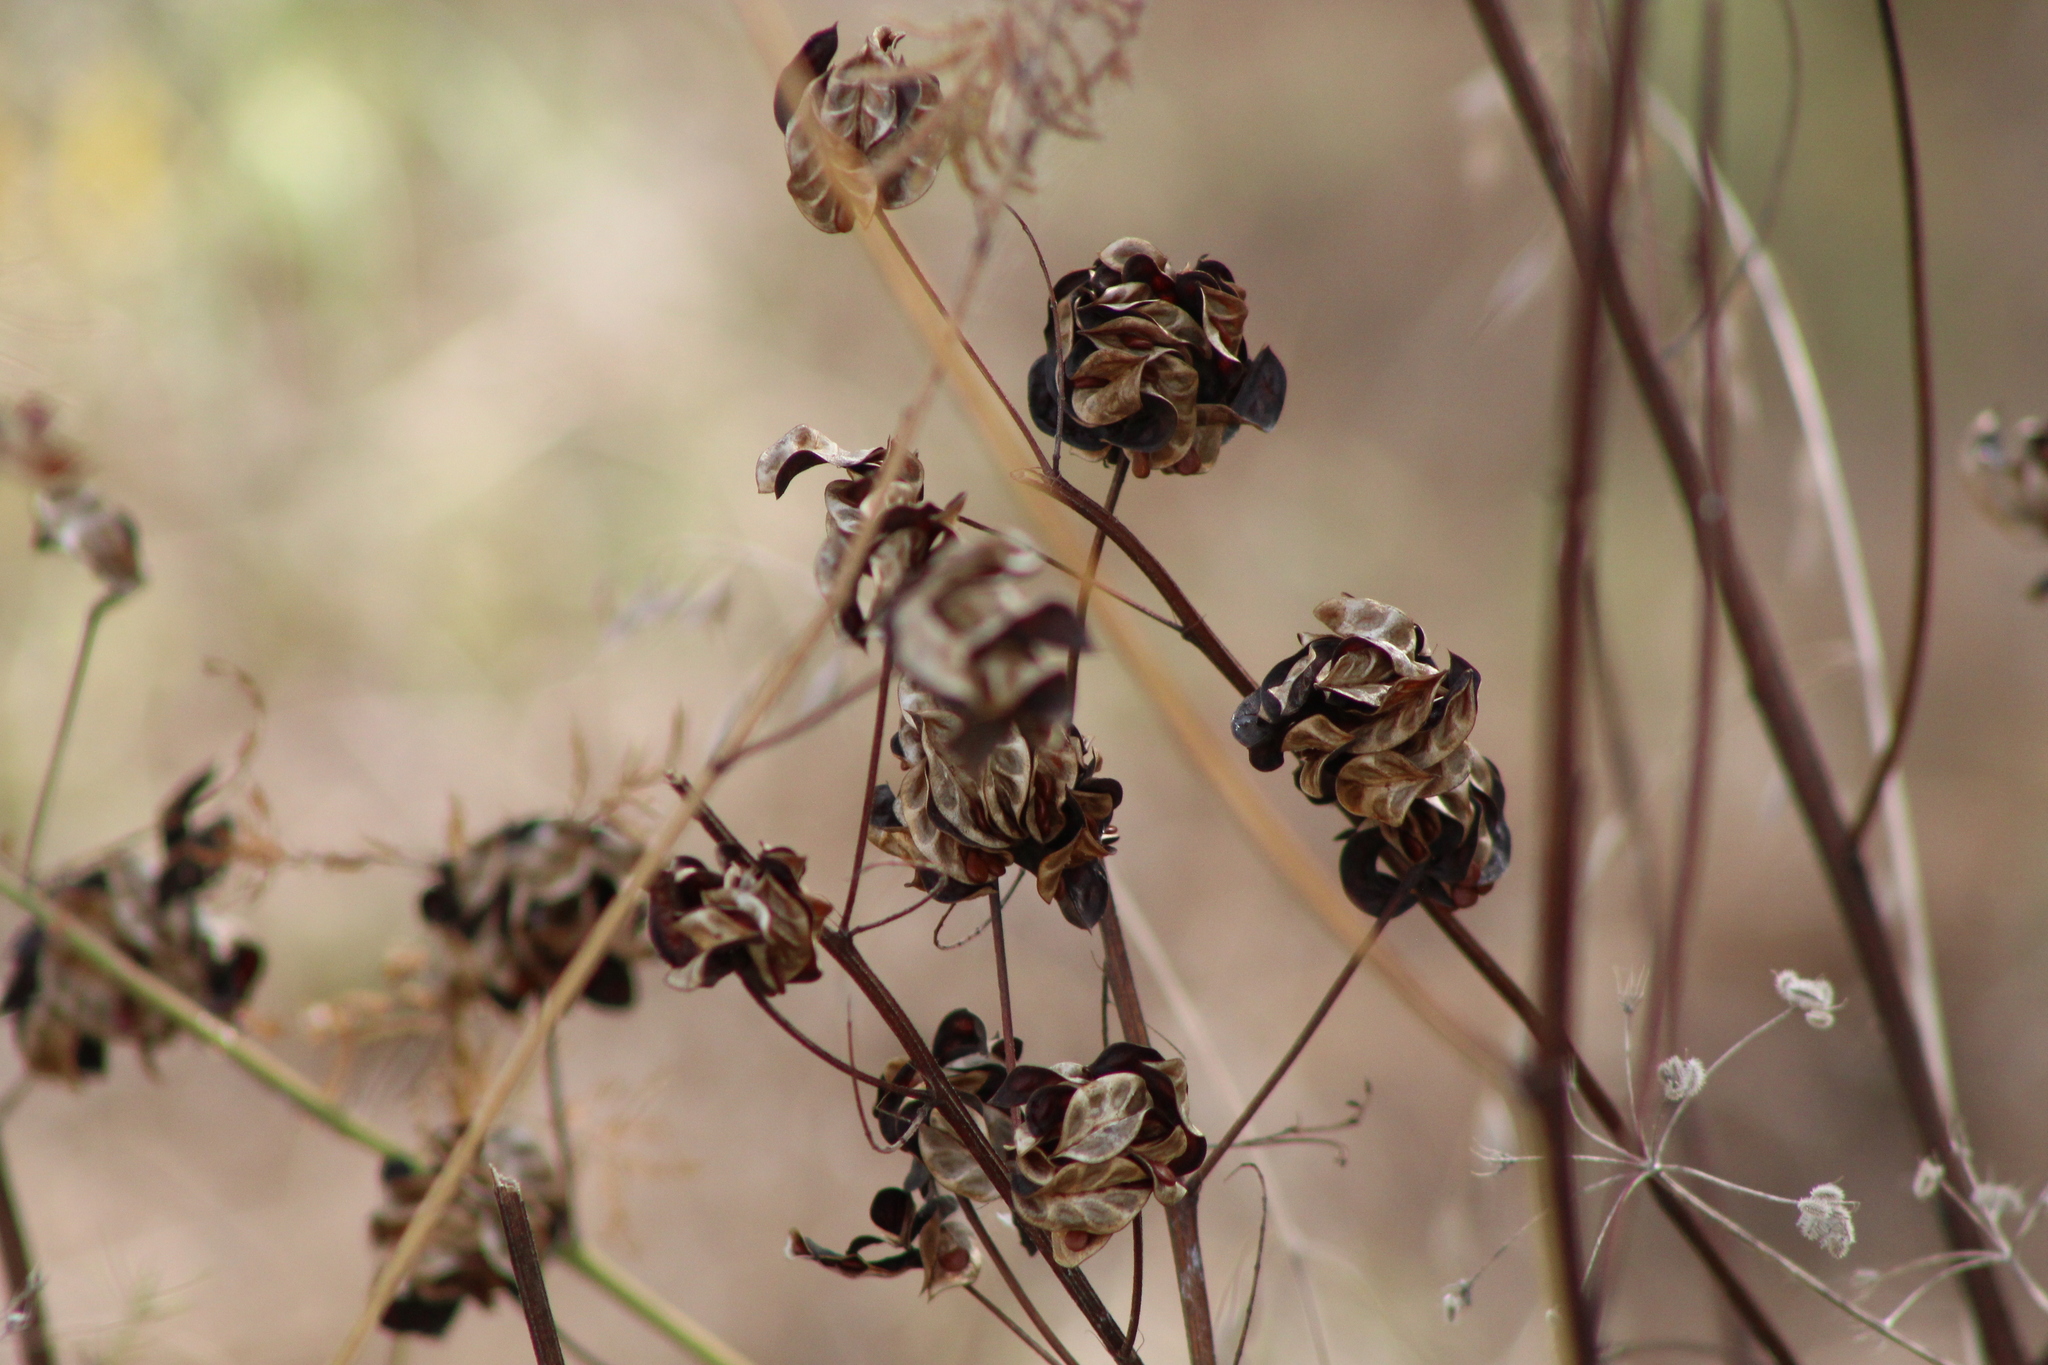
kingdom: Plantae
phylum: Tracheophyta
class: Magnoliopsida
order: Fabales
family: Fabaceae
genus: Desmanthus
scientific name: Desmanthus illinoensis
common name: Illinois bundle-flower
